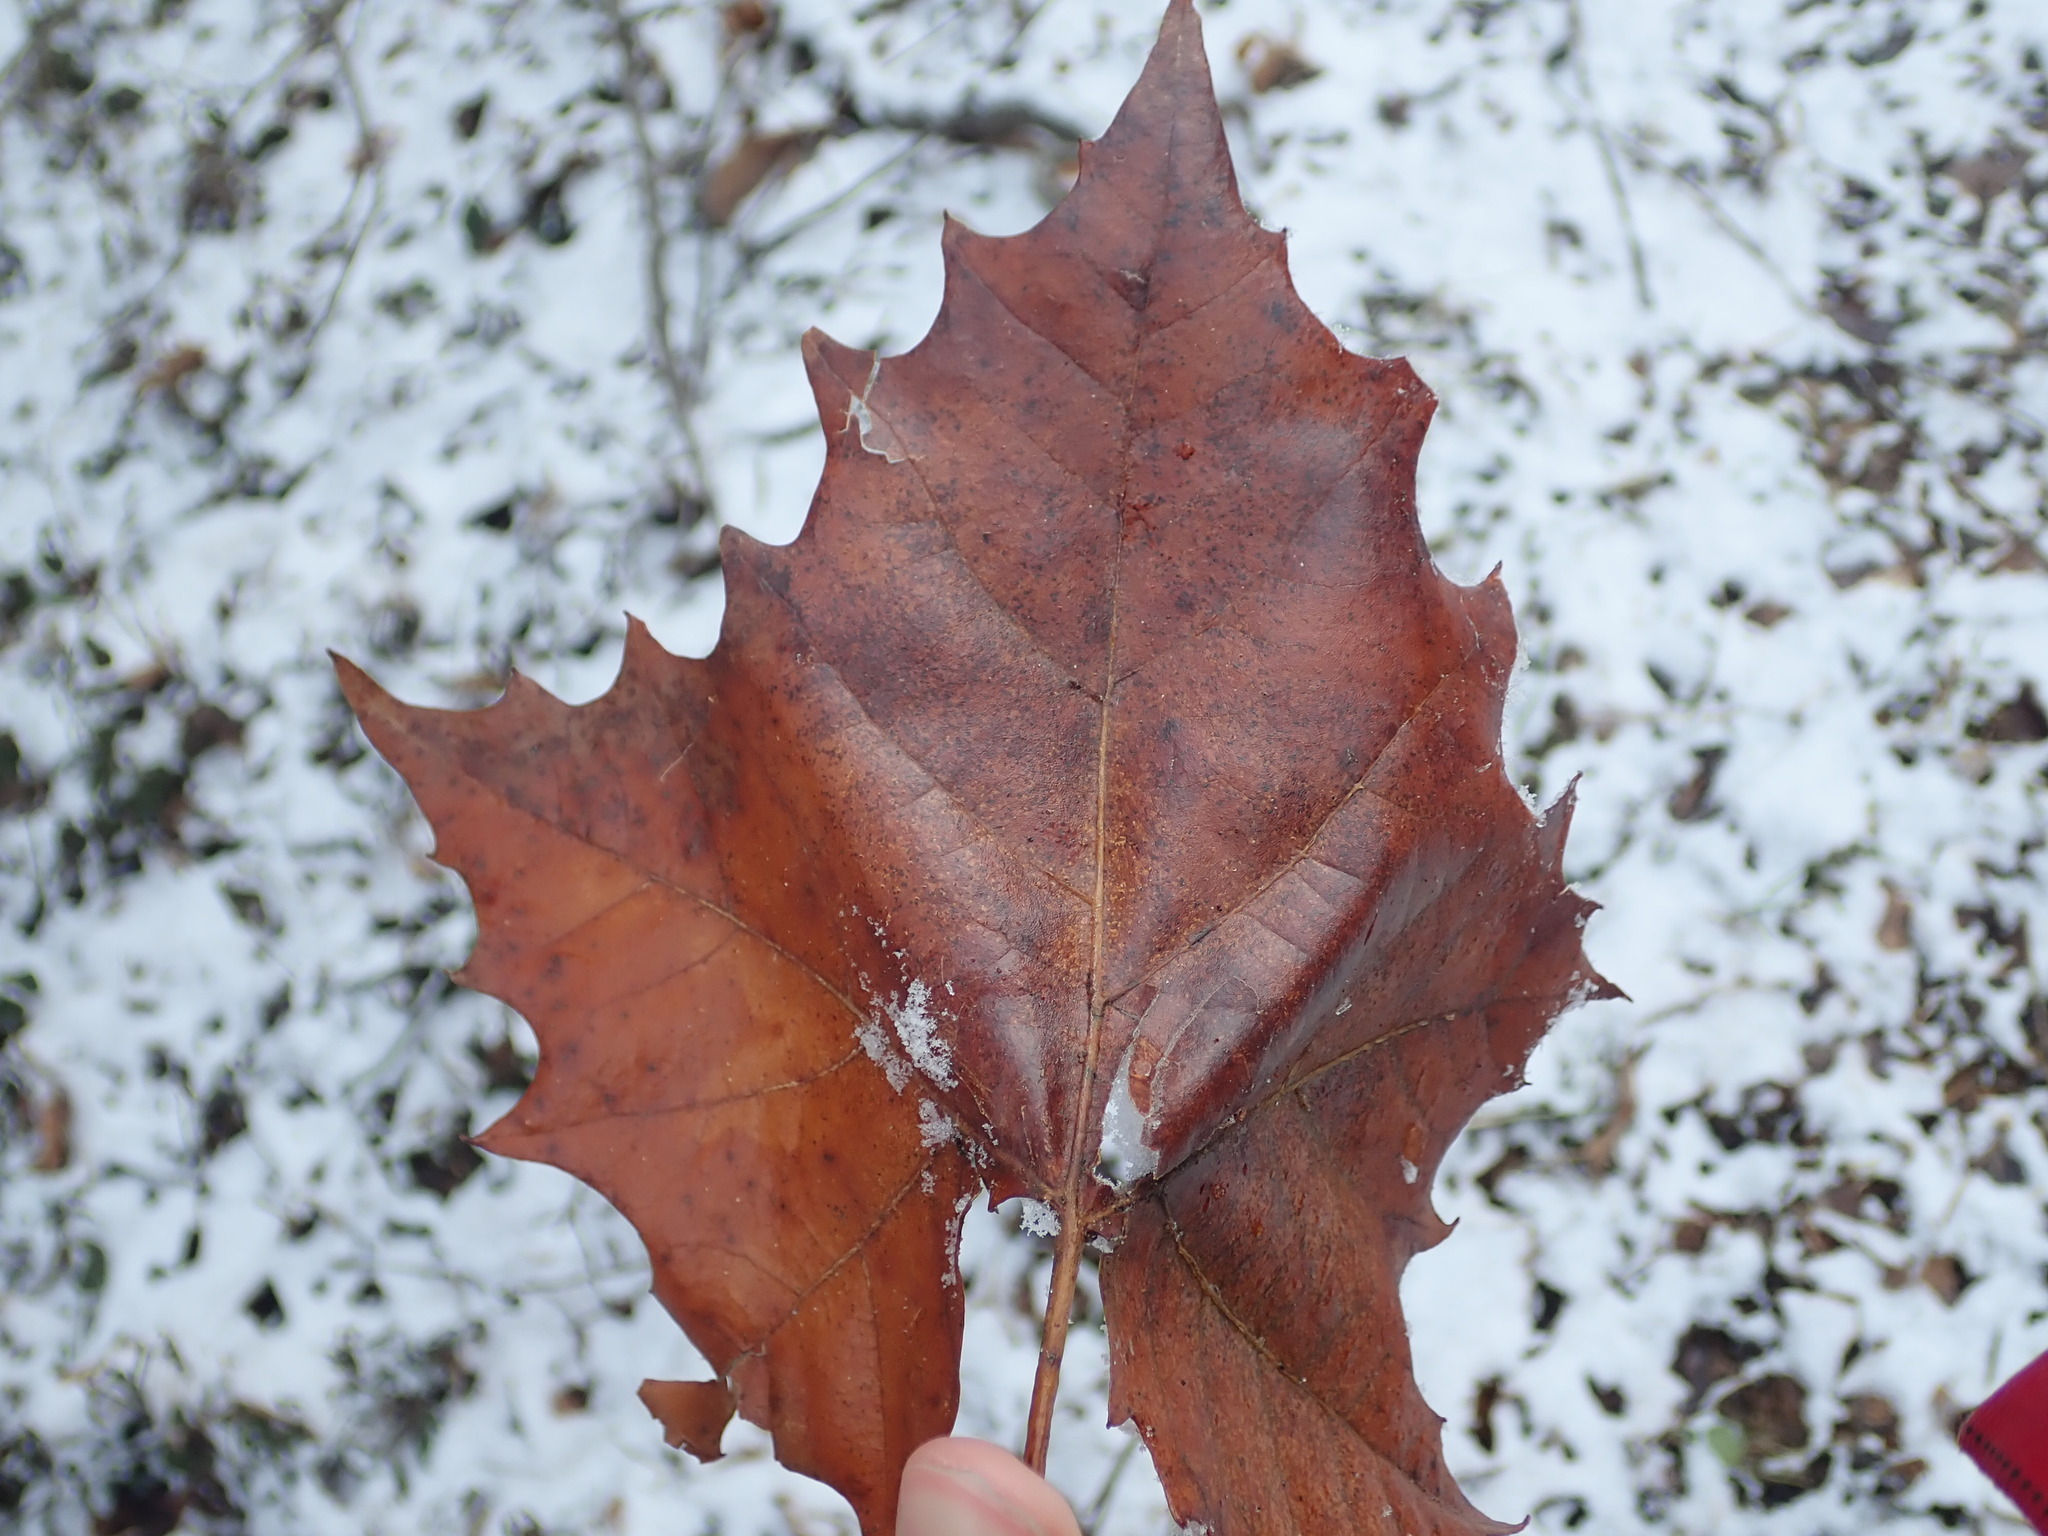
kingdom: Plantae
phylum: Tracheophyta
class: Magnoliopsida
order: Proteales
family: Platanaceae
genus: Platanus
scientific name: Platanus occidentalis
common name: American sycamore
